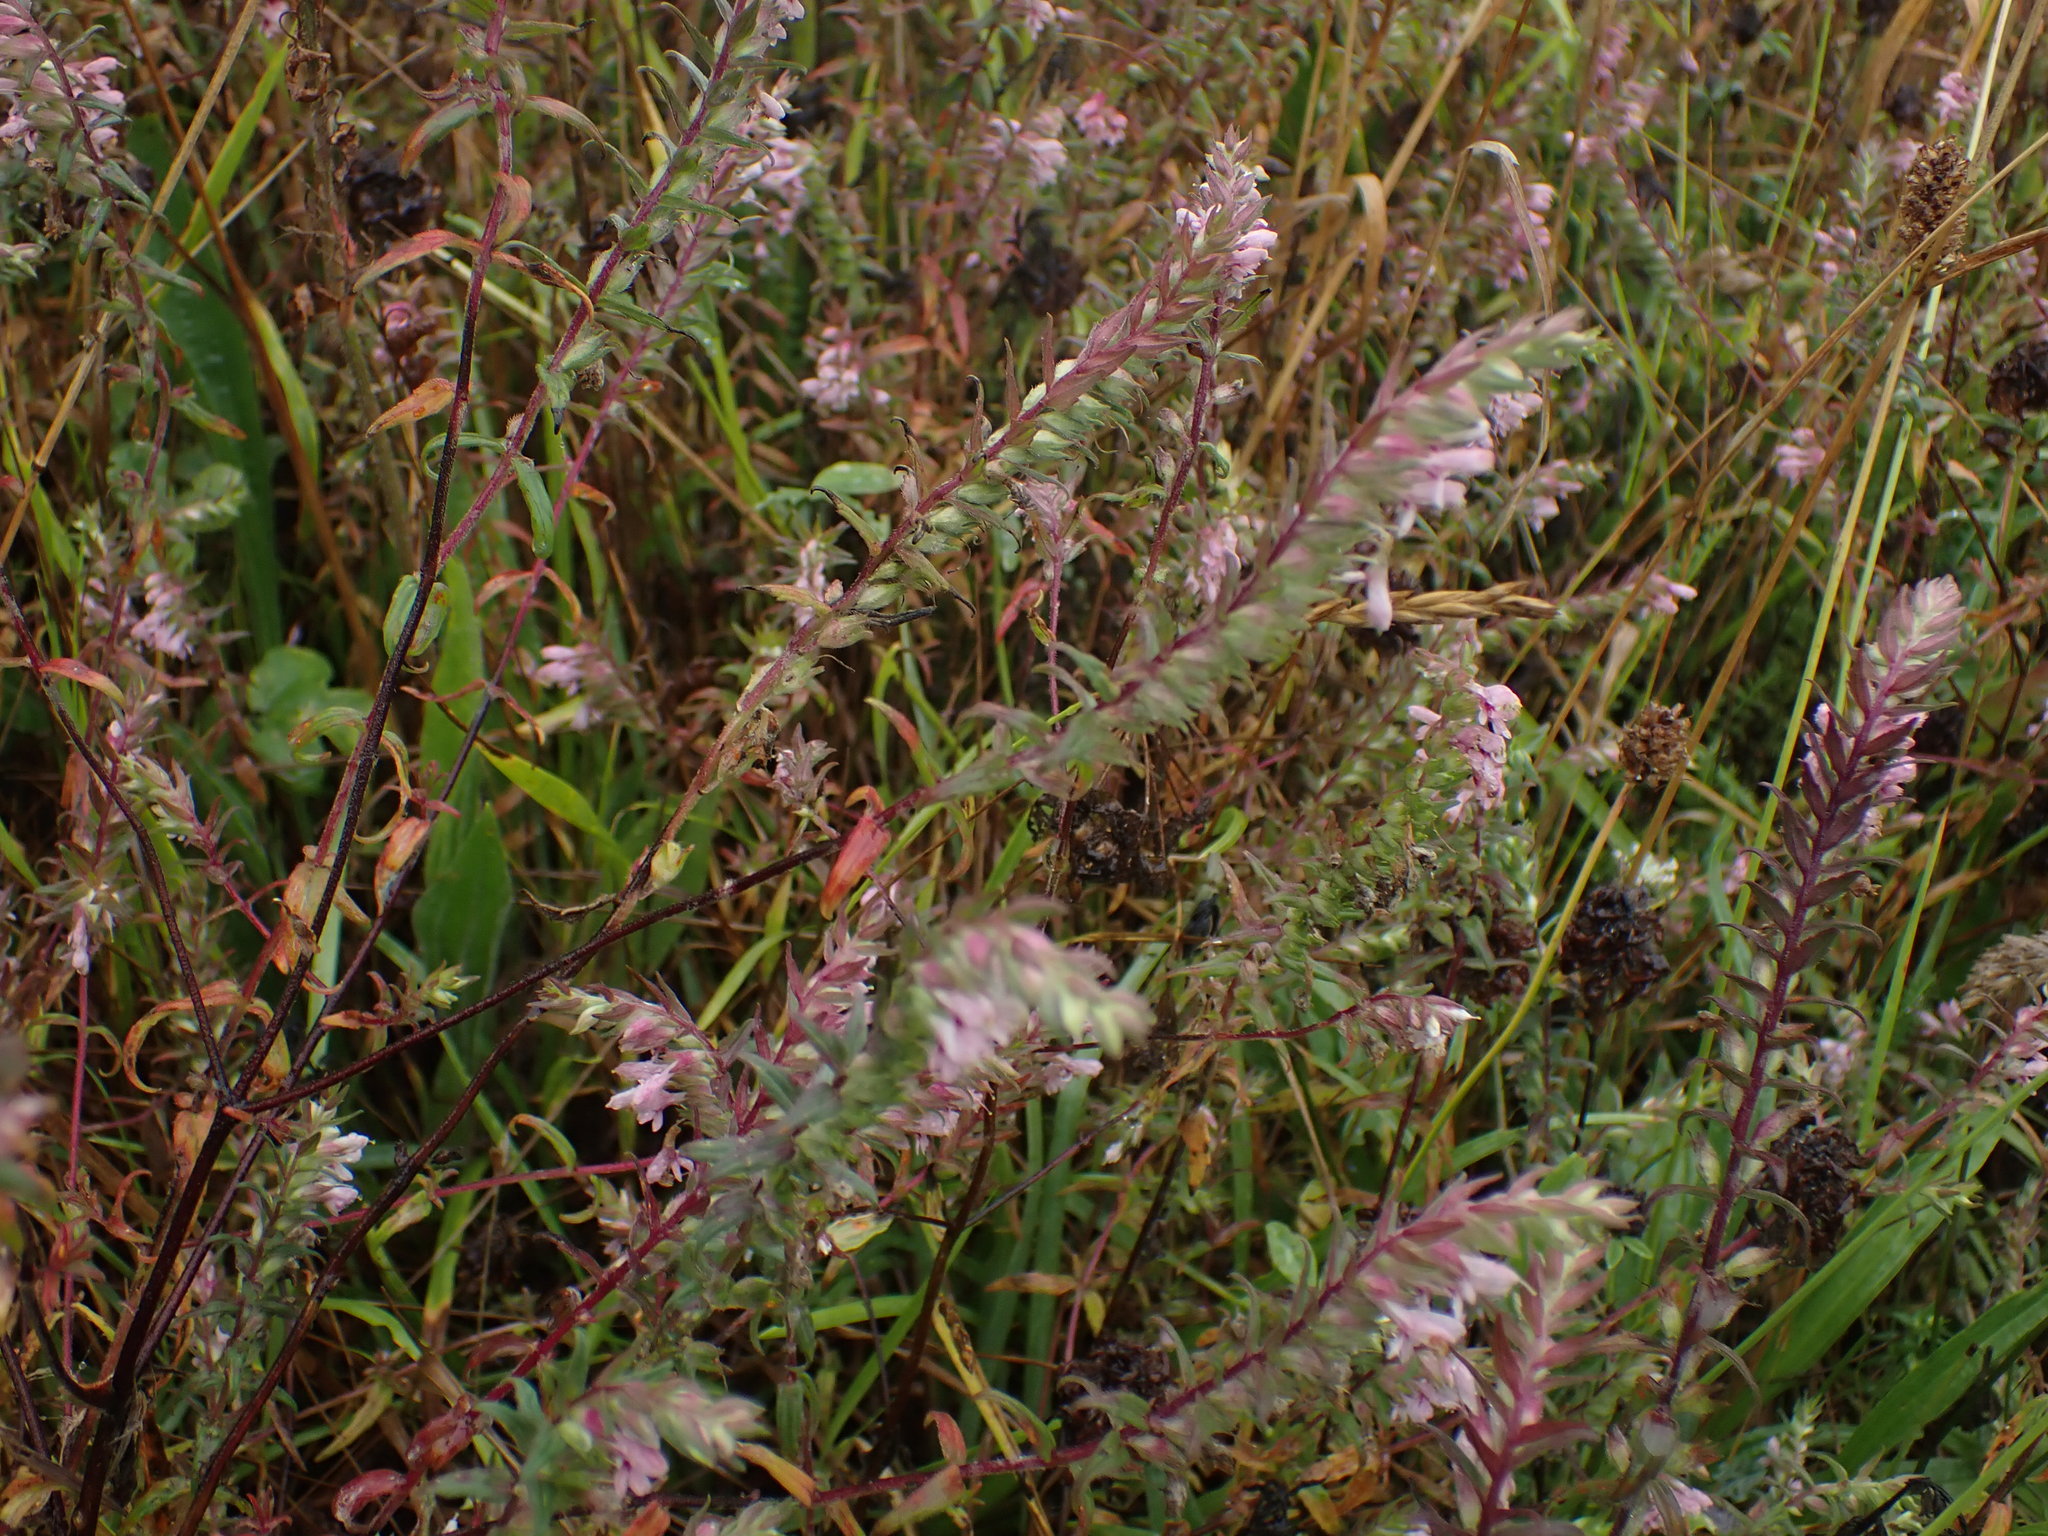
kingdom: Plantae
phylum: Tracheophyta
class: Magnoliopsida
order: Lamiales
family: Orobanchaceae
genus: Odontites
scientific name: Odontites vulgaris
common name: Broomrape
